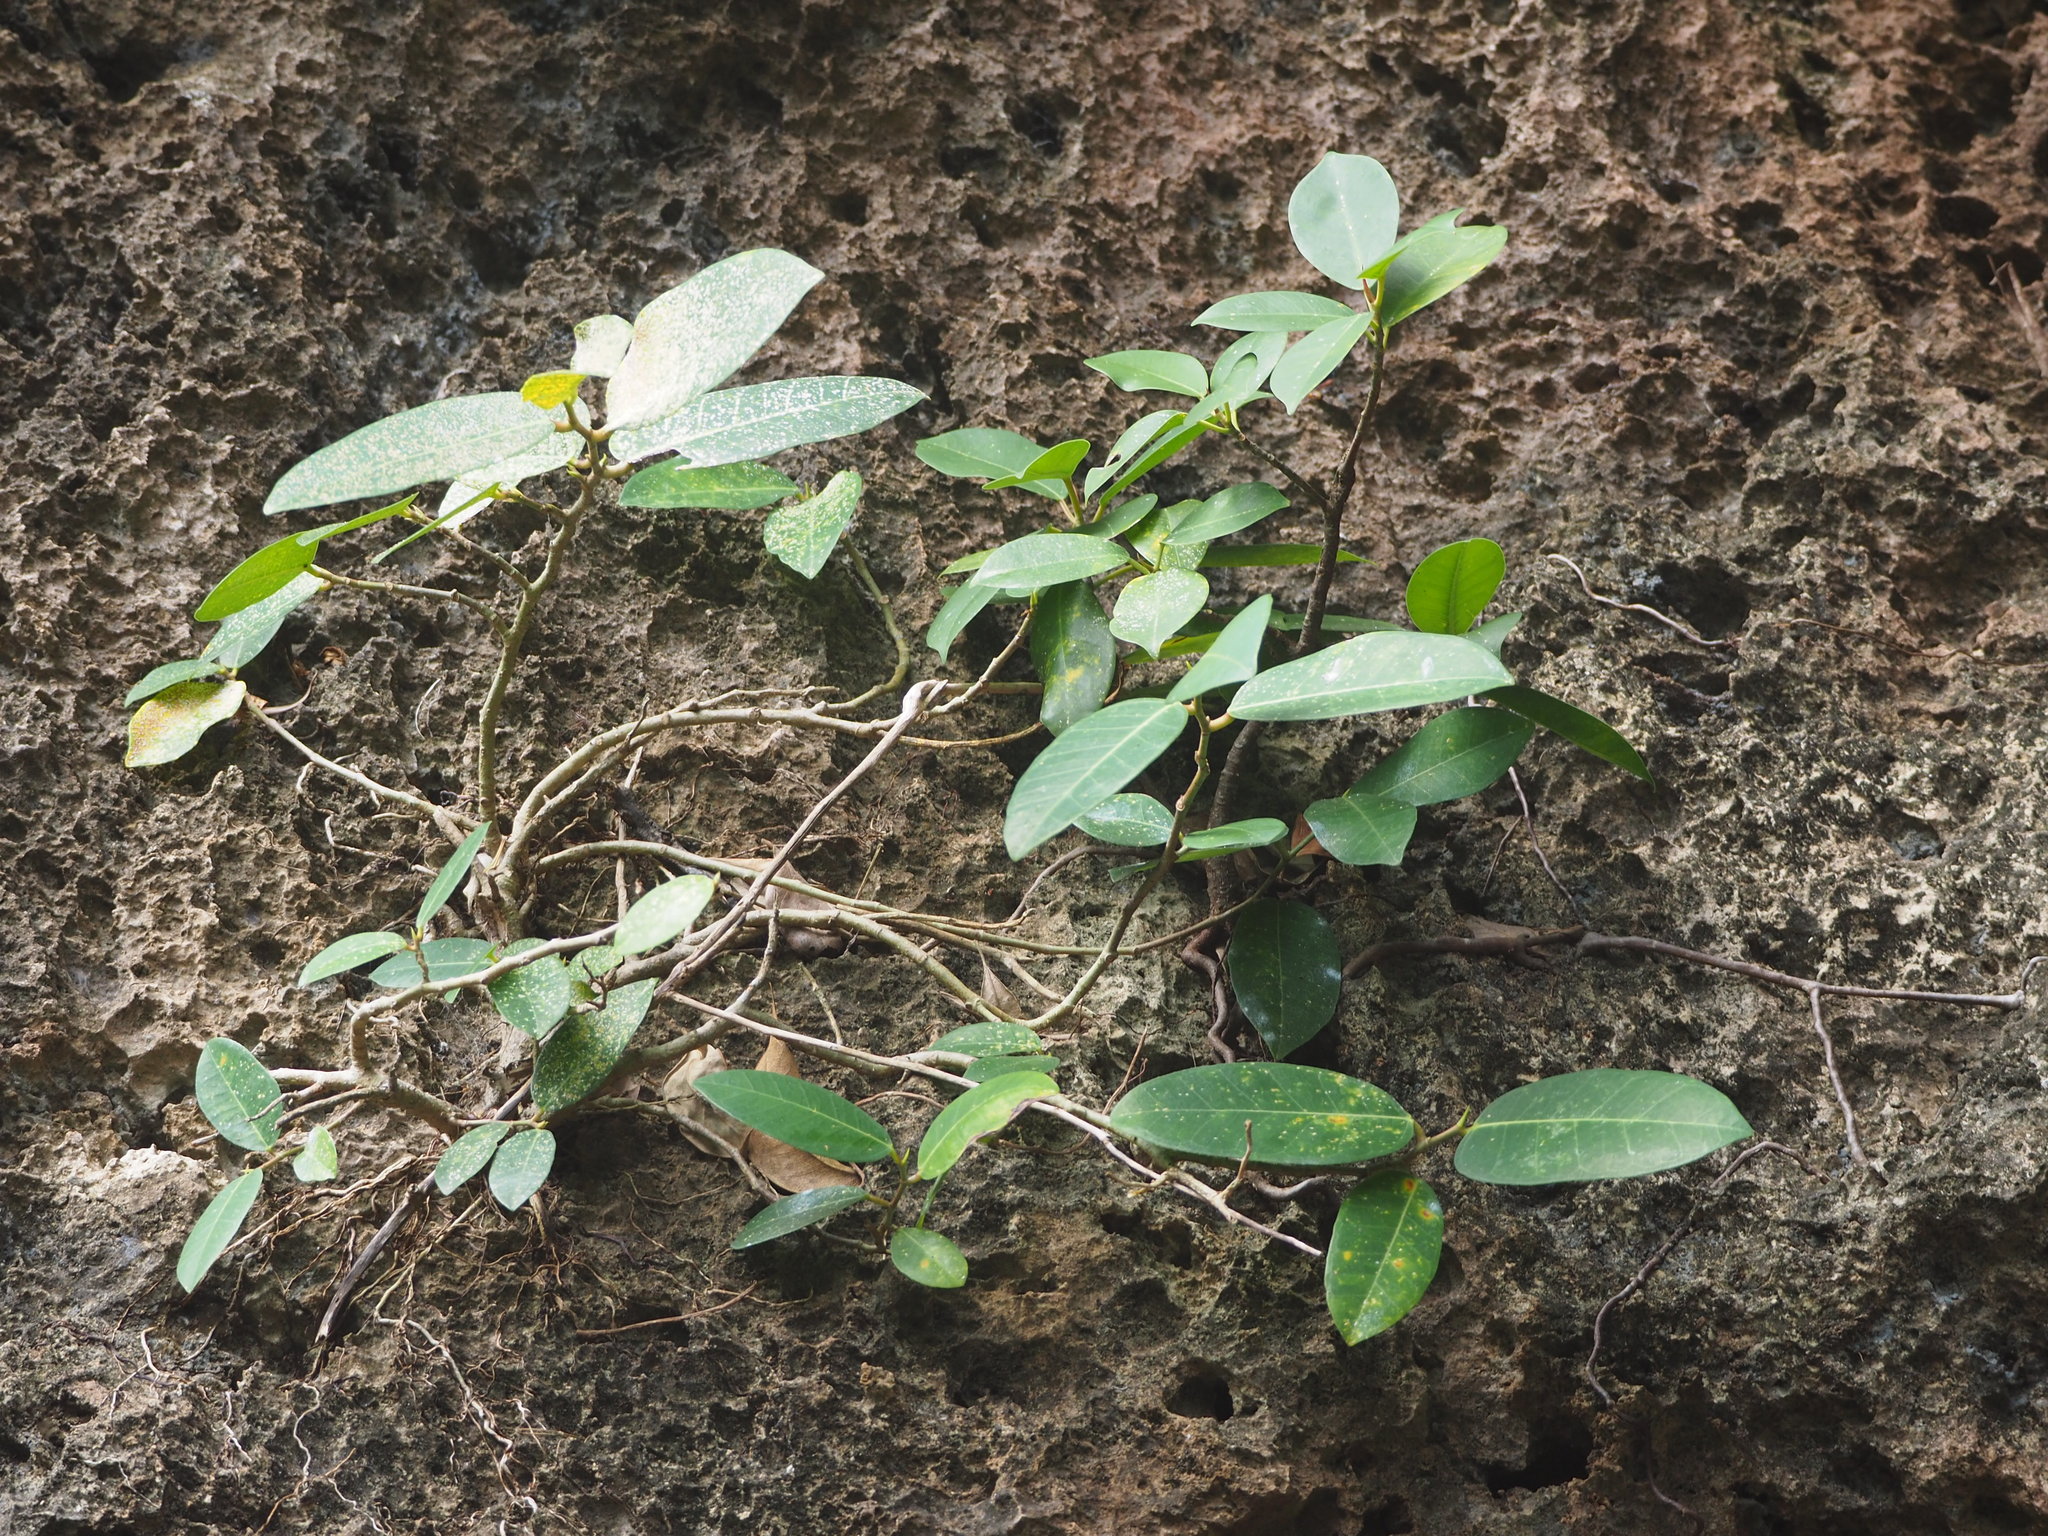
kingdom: Plantae
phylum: Tracheophyta
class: Magnoliopsida
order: Rosales
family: Moraceae
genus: Ficus
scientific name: Ficus tinctoria
